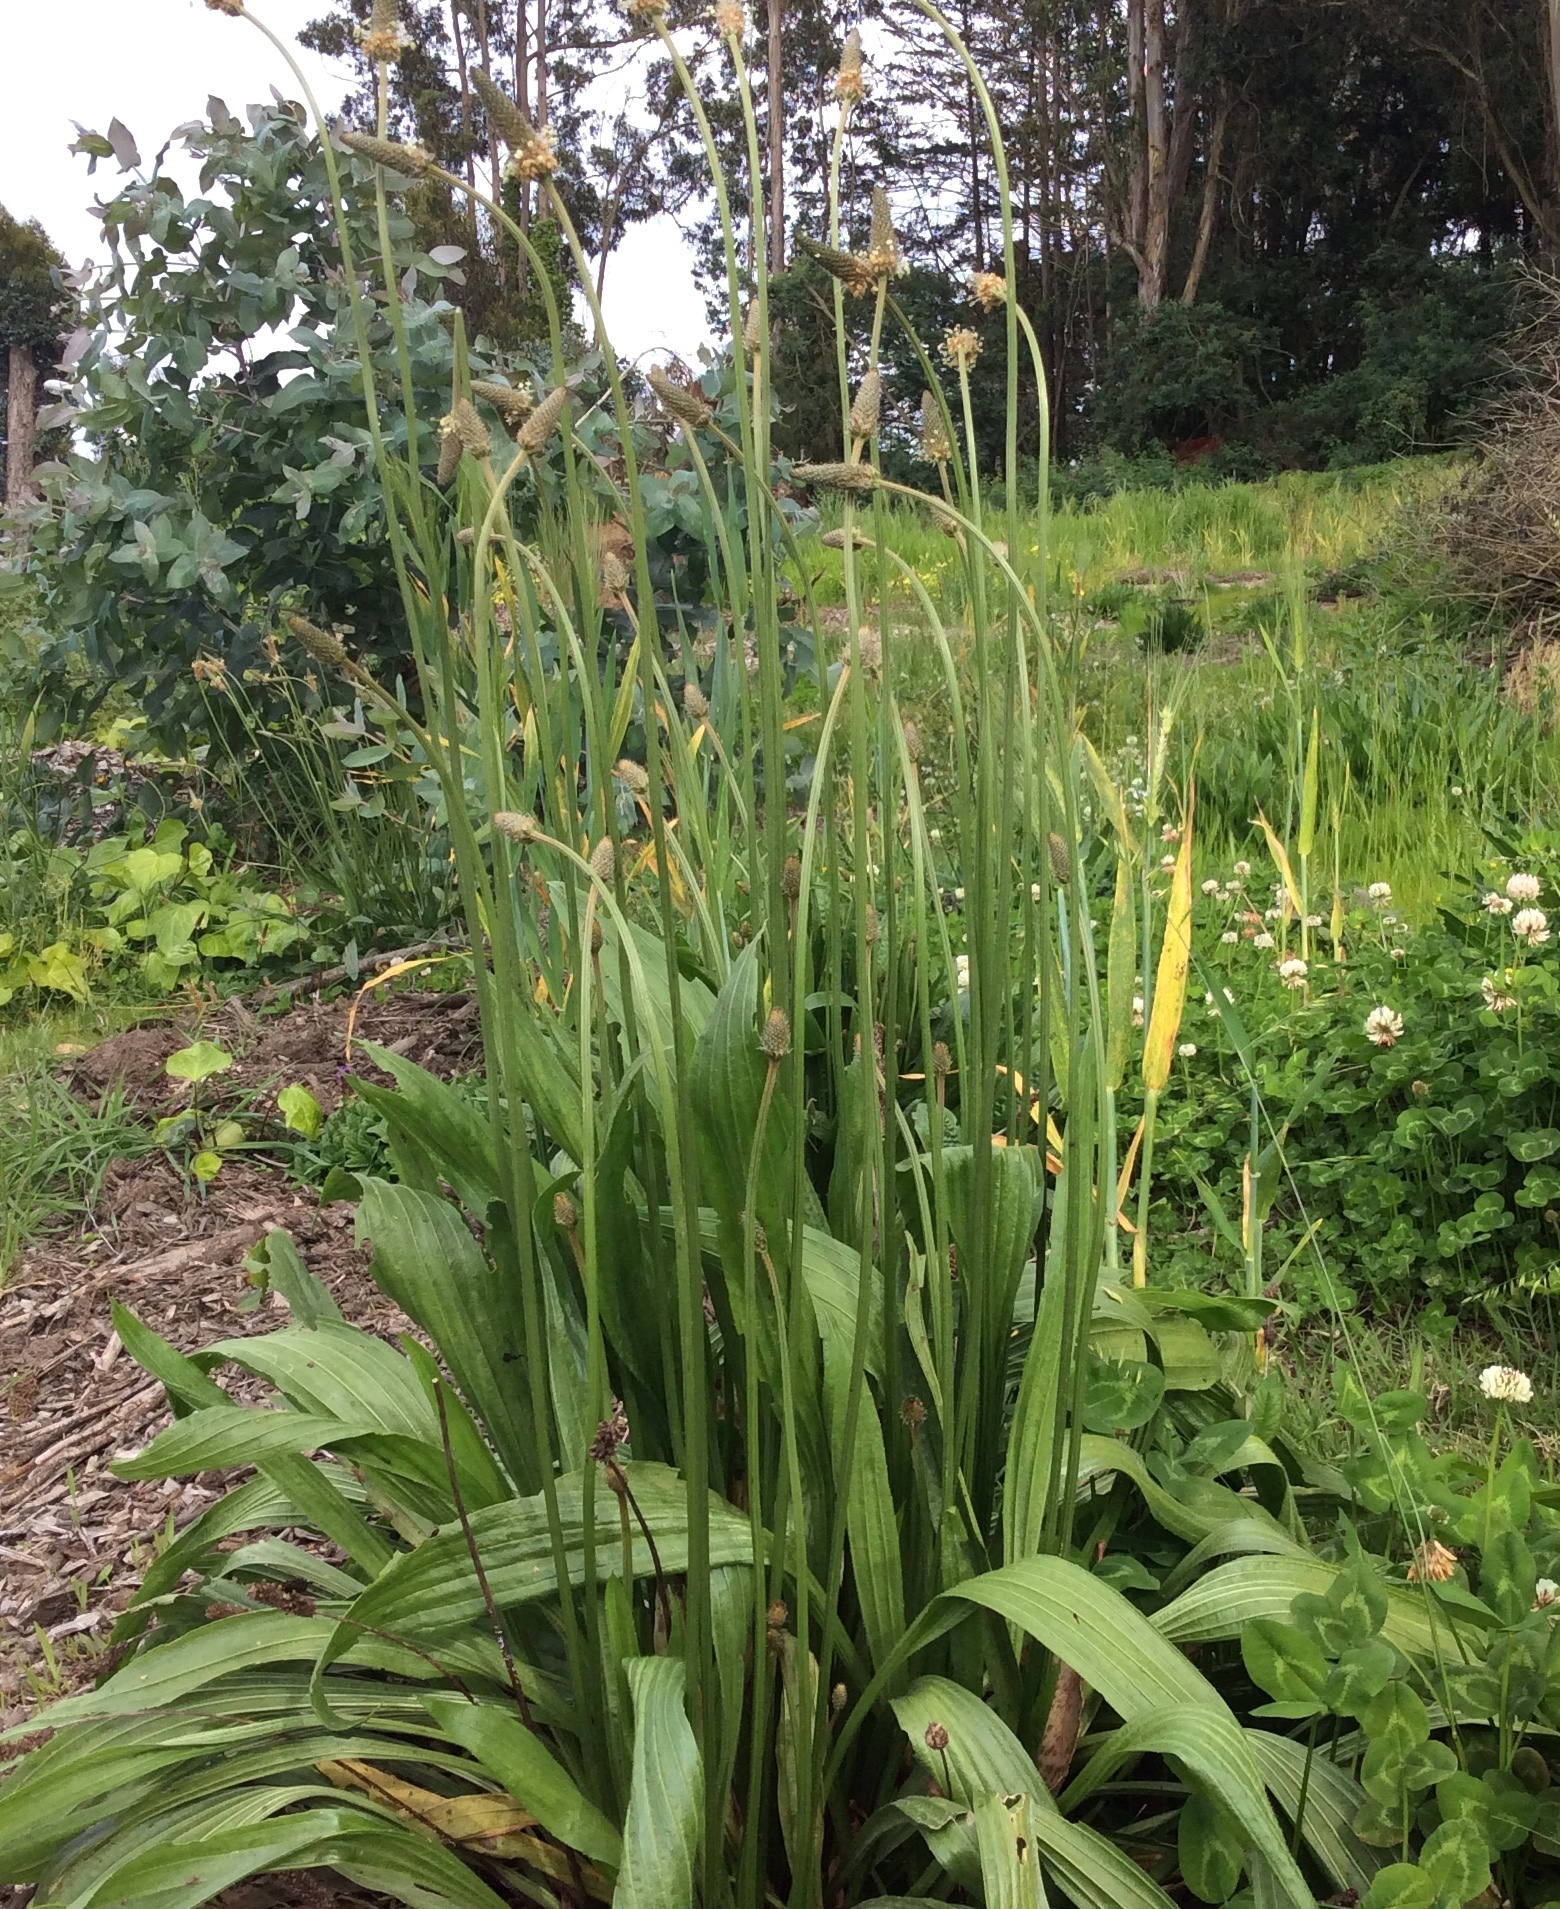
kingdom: Plantae
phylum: Tracheophyta
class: Magnoliopsida
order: Lamiales
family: Plantaginaceae
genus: Plantago
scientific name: Plantago lanceolata
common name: Ribwort plantain
